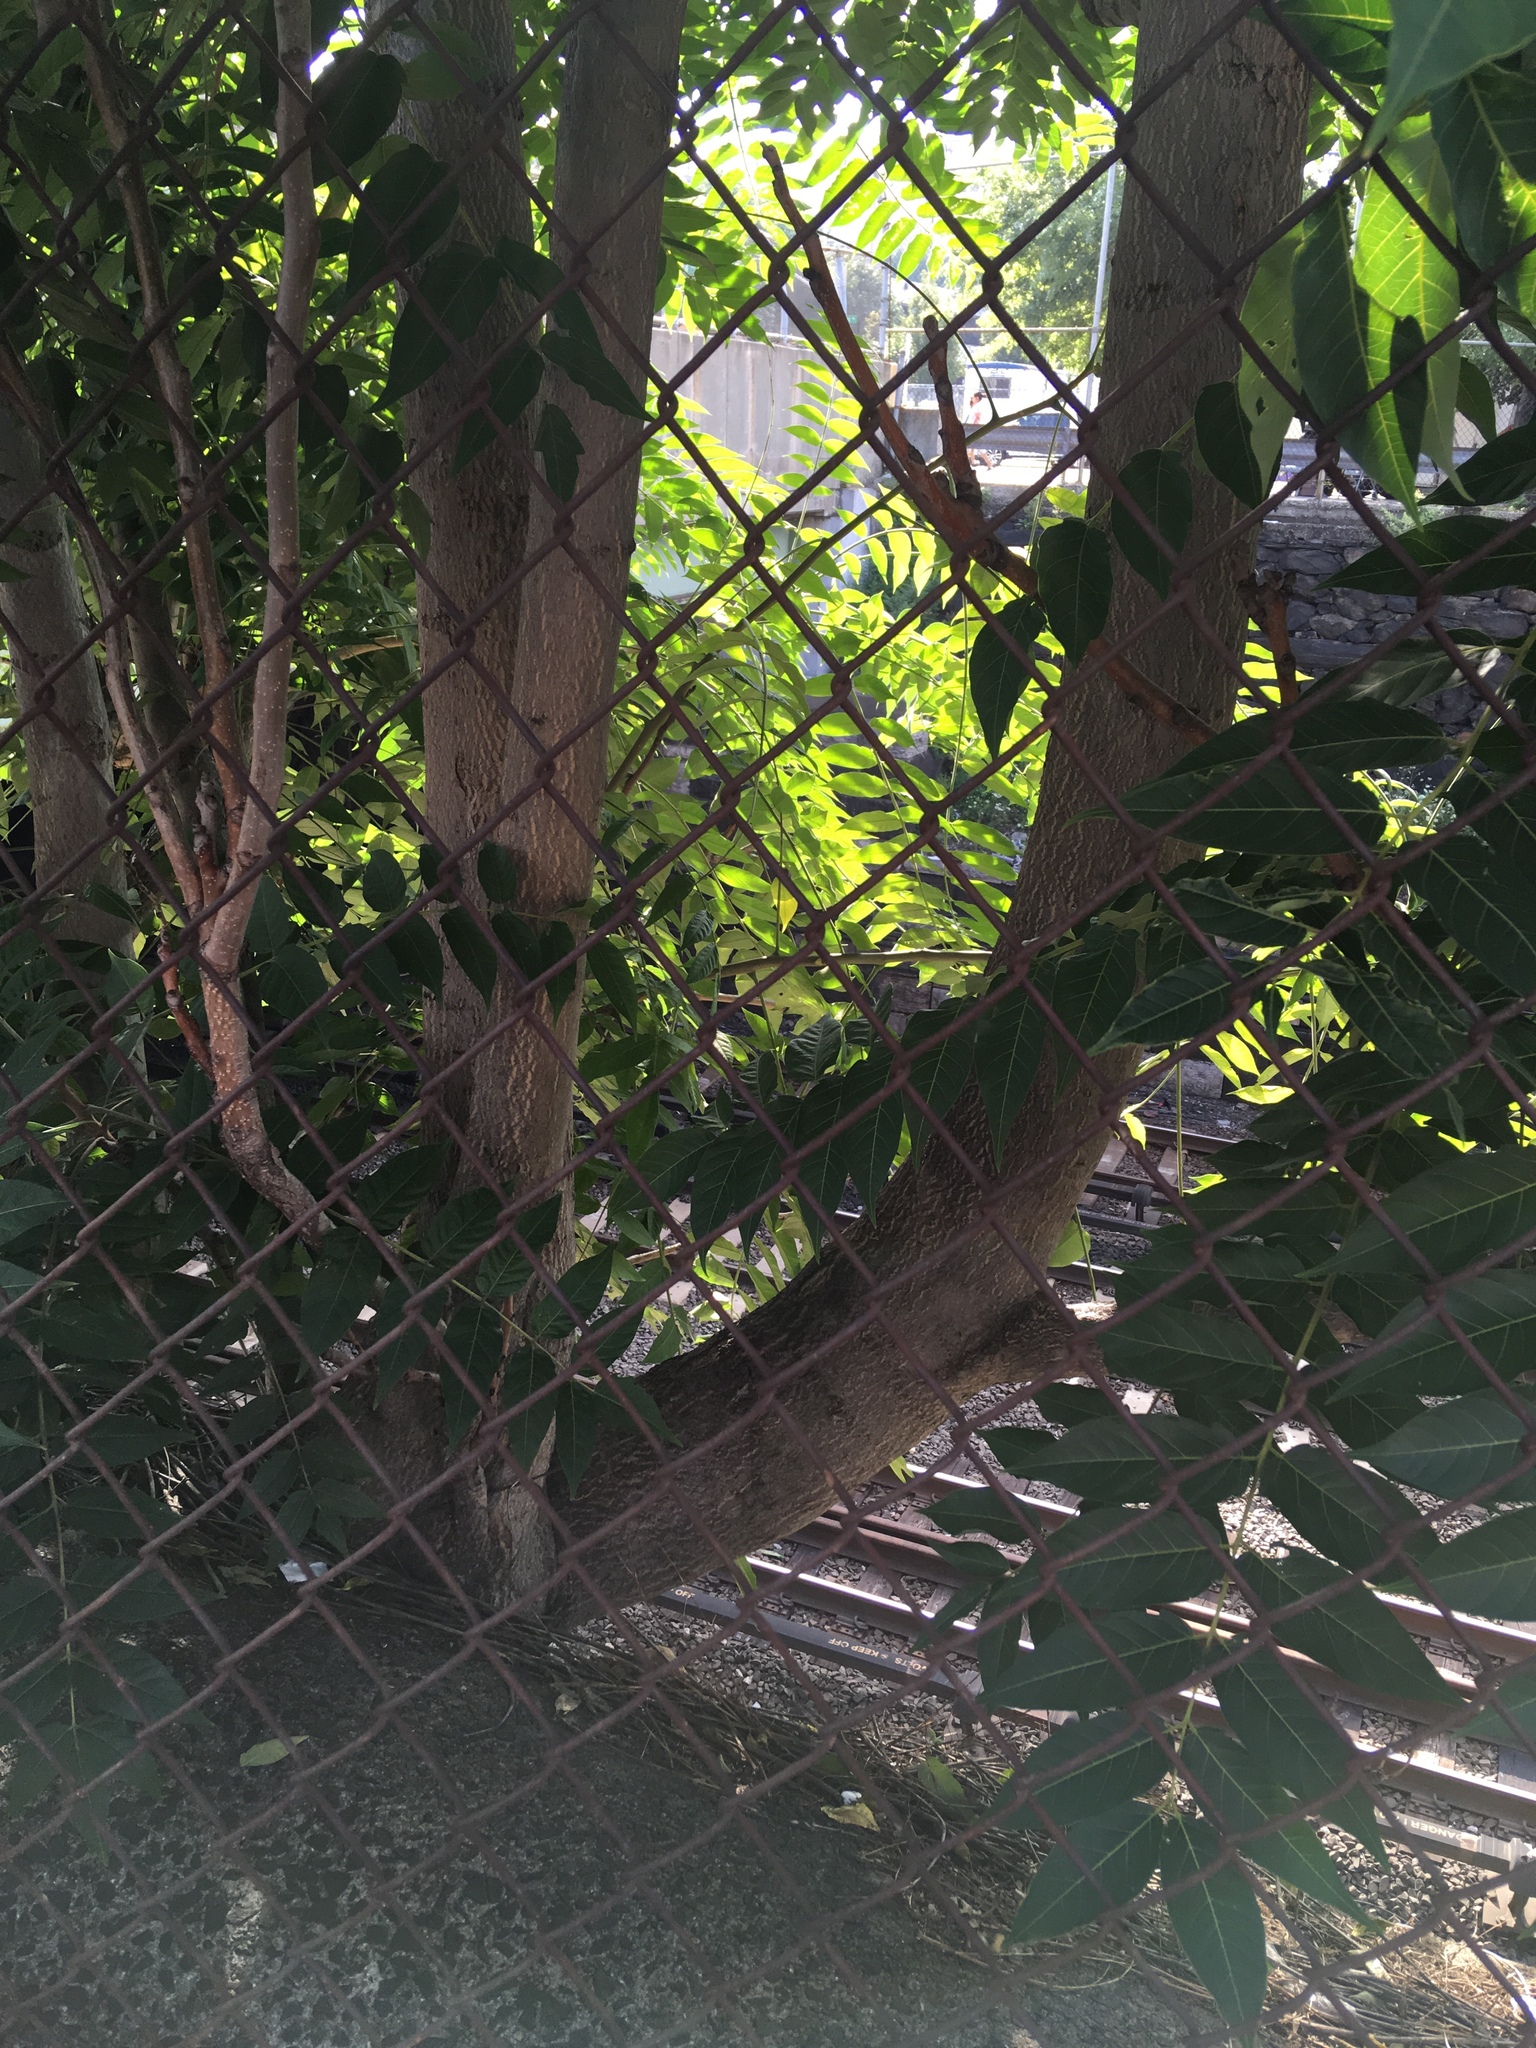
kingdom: Plantae
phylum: Tracheophyta
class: Magnoliopsida
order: Sapindales
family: Simaroubaceae
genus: Ailanthus
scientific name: Ailanthus altissima
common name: Tree-of-heaven
